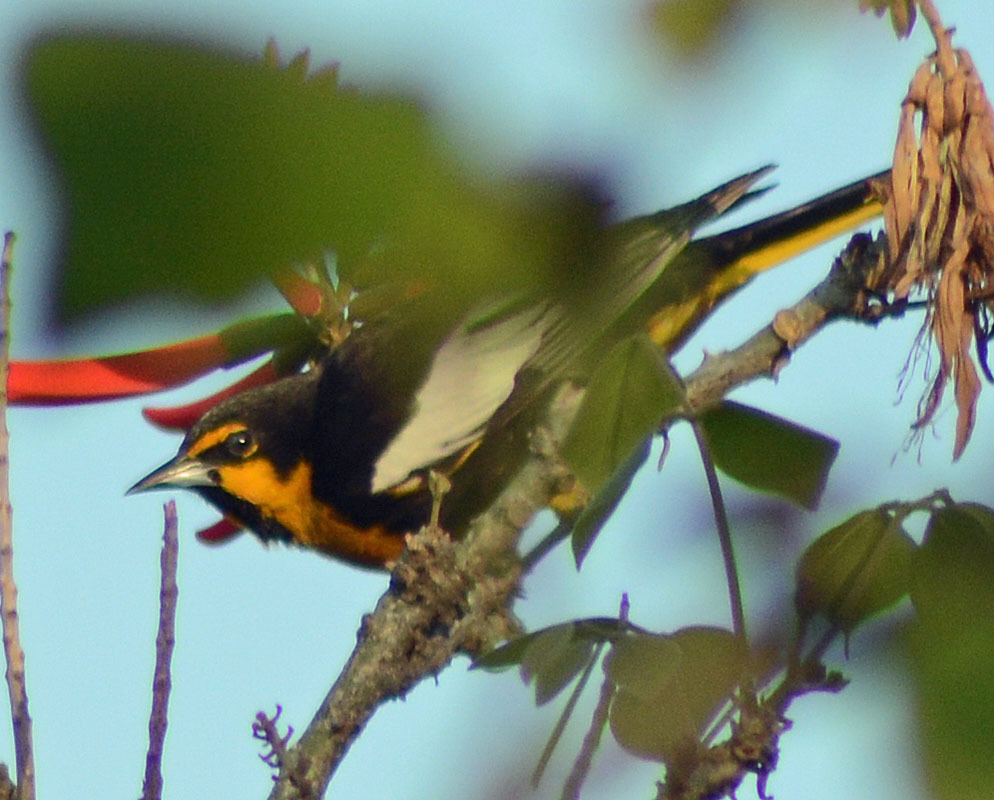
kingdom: Animalia
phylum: Chordata
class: Aves
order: Passeriformes
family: Icteridae
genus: Icterus
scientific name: Icterus abeillei
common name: Black-backed oriole
